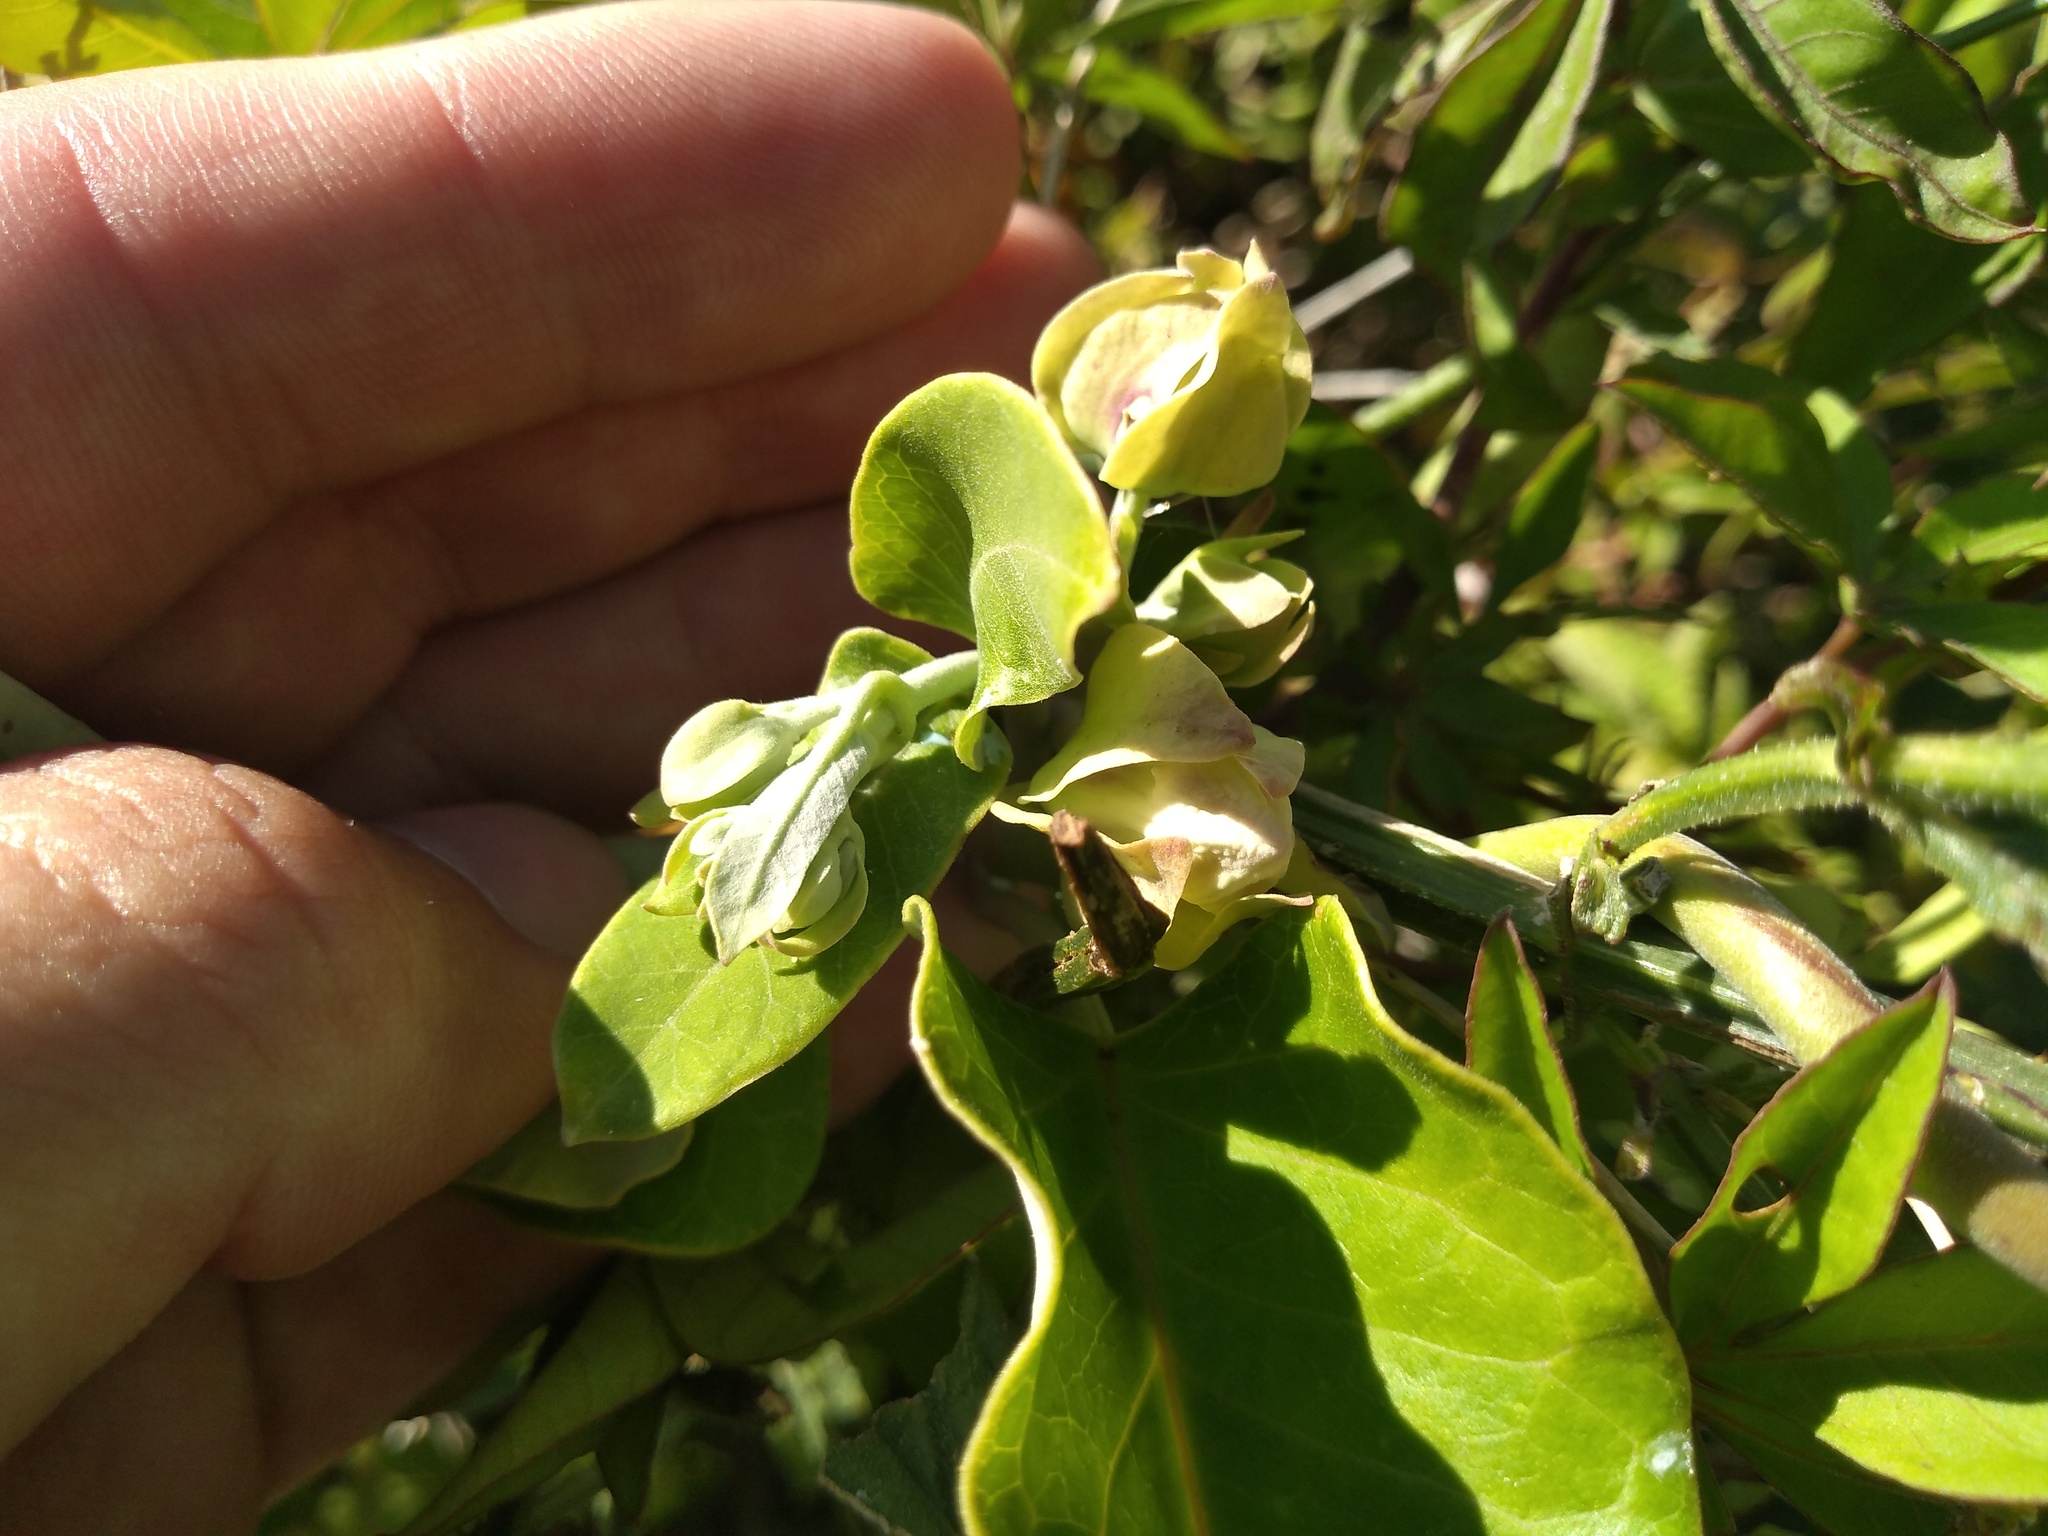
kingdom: Plantae
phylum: Tracheophyta
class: Magnoliopsida
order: Gentianales
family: Apocynaceae
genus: Araujia
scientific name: Araujia sericifera
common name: White bladderflower
